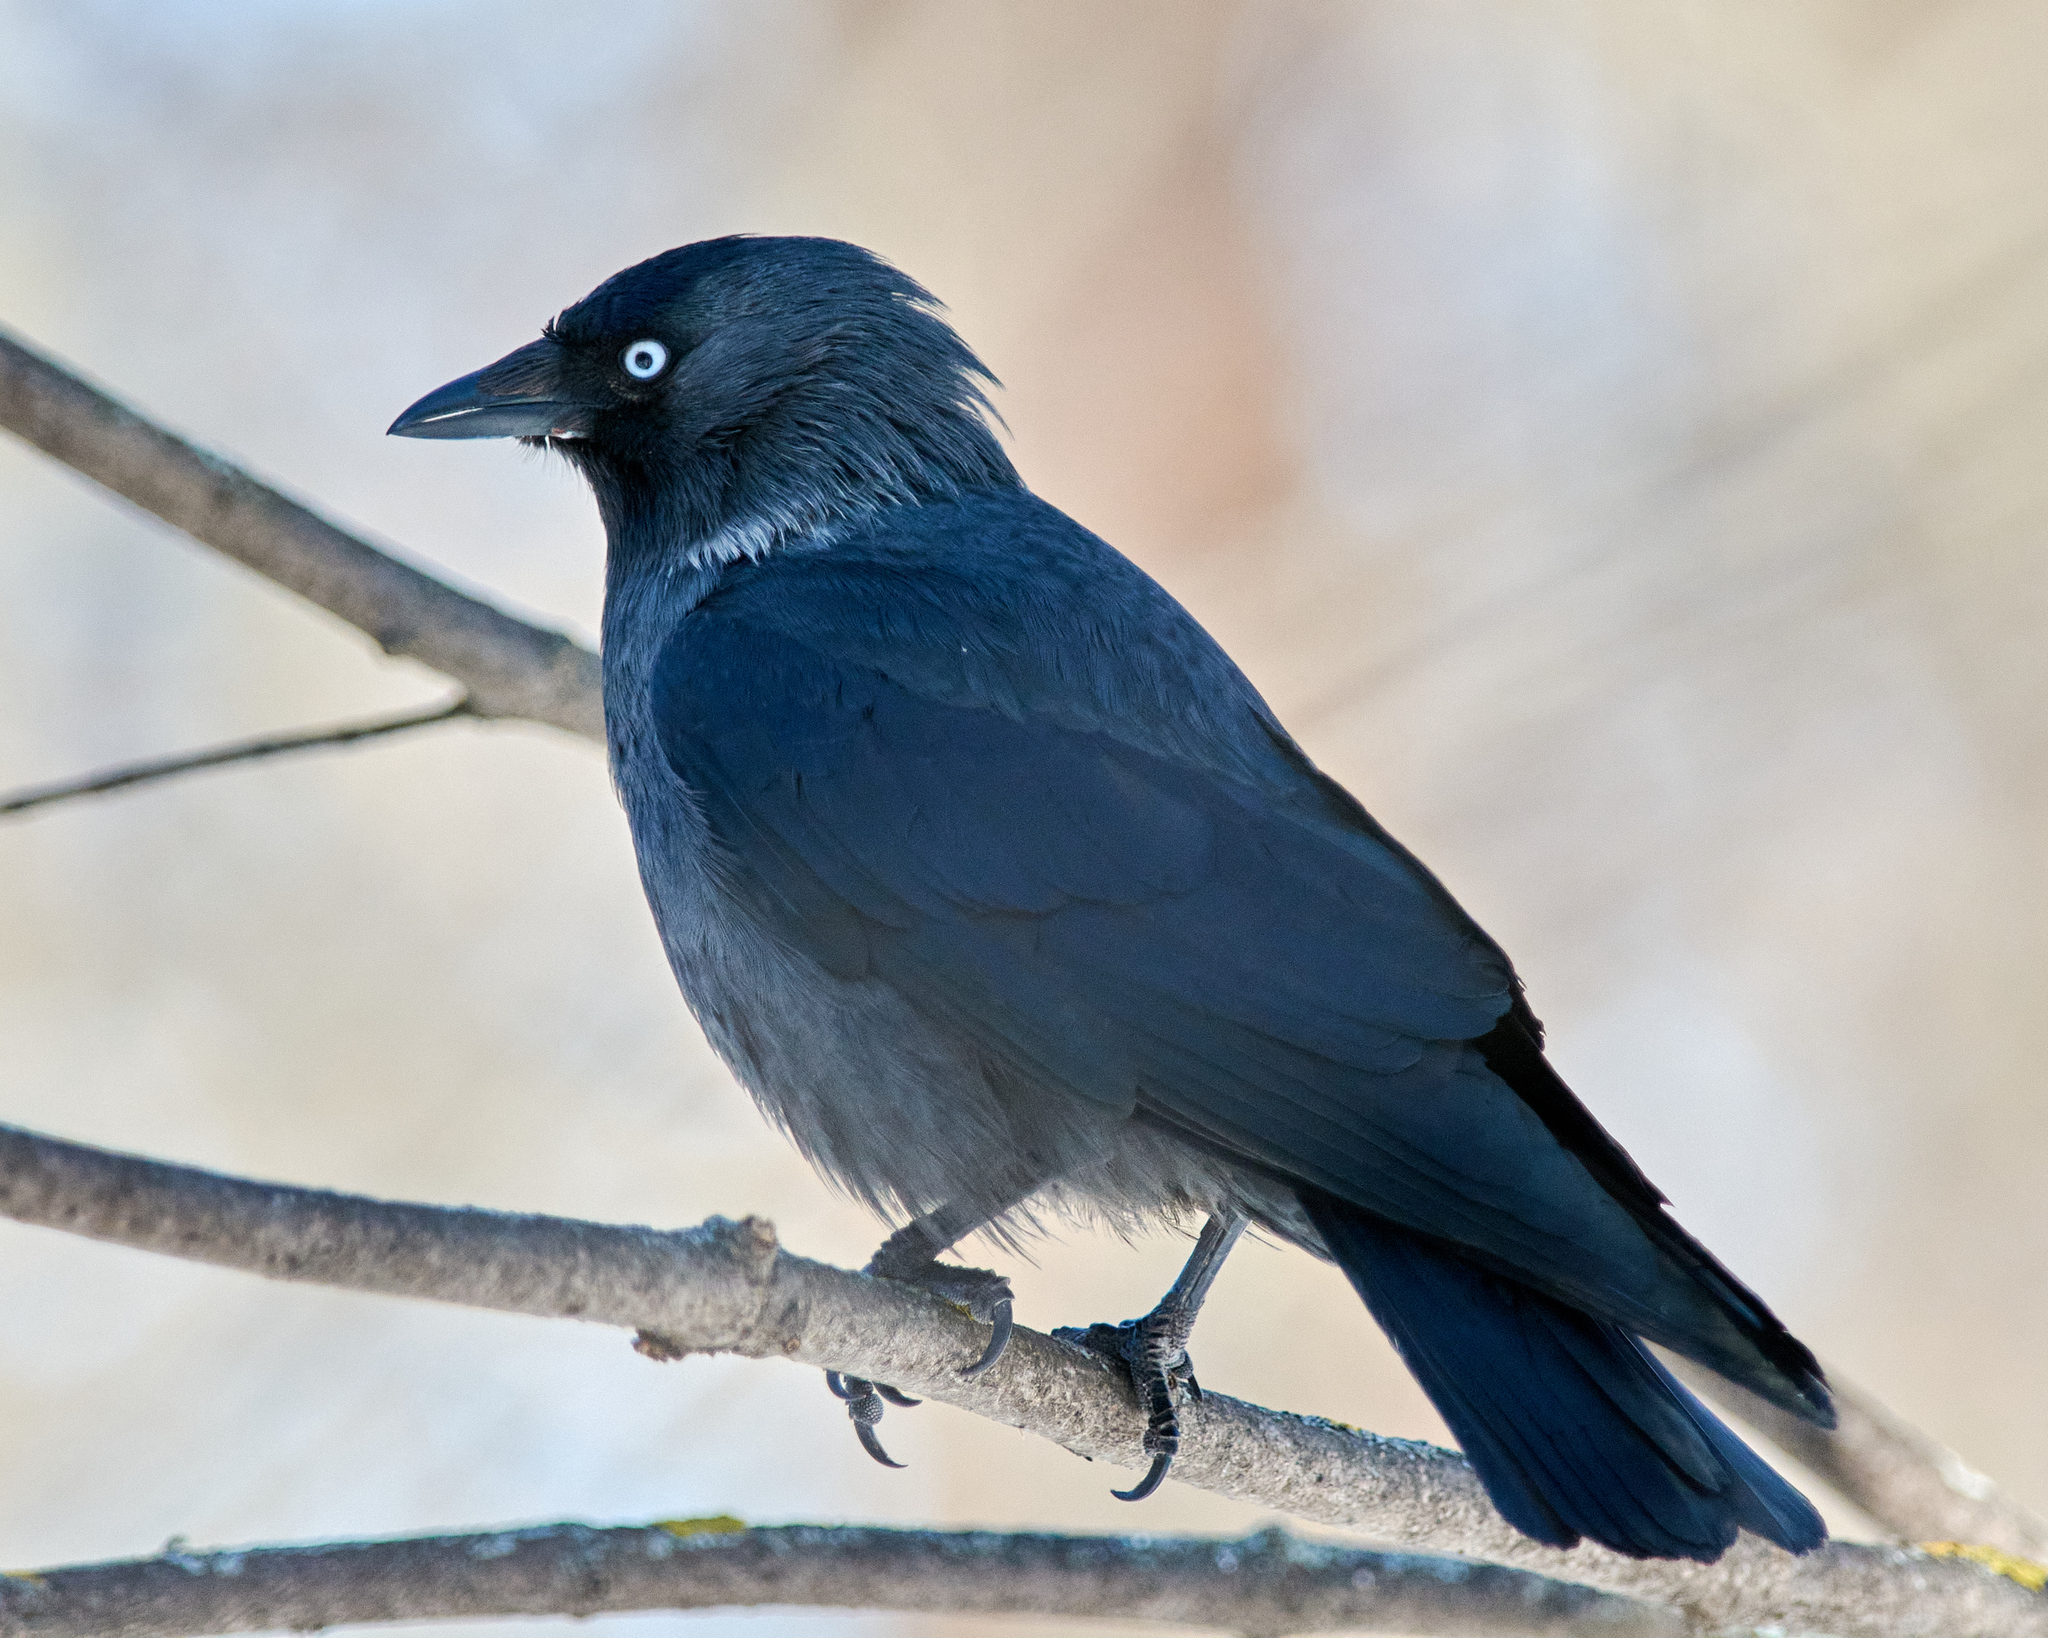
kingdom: Animalia
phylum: Chordata
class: Aves
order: Passeriformes
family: Corvidae
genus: Coloeus
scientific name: Coloeus monedula
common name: Western jackdaw
